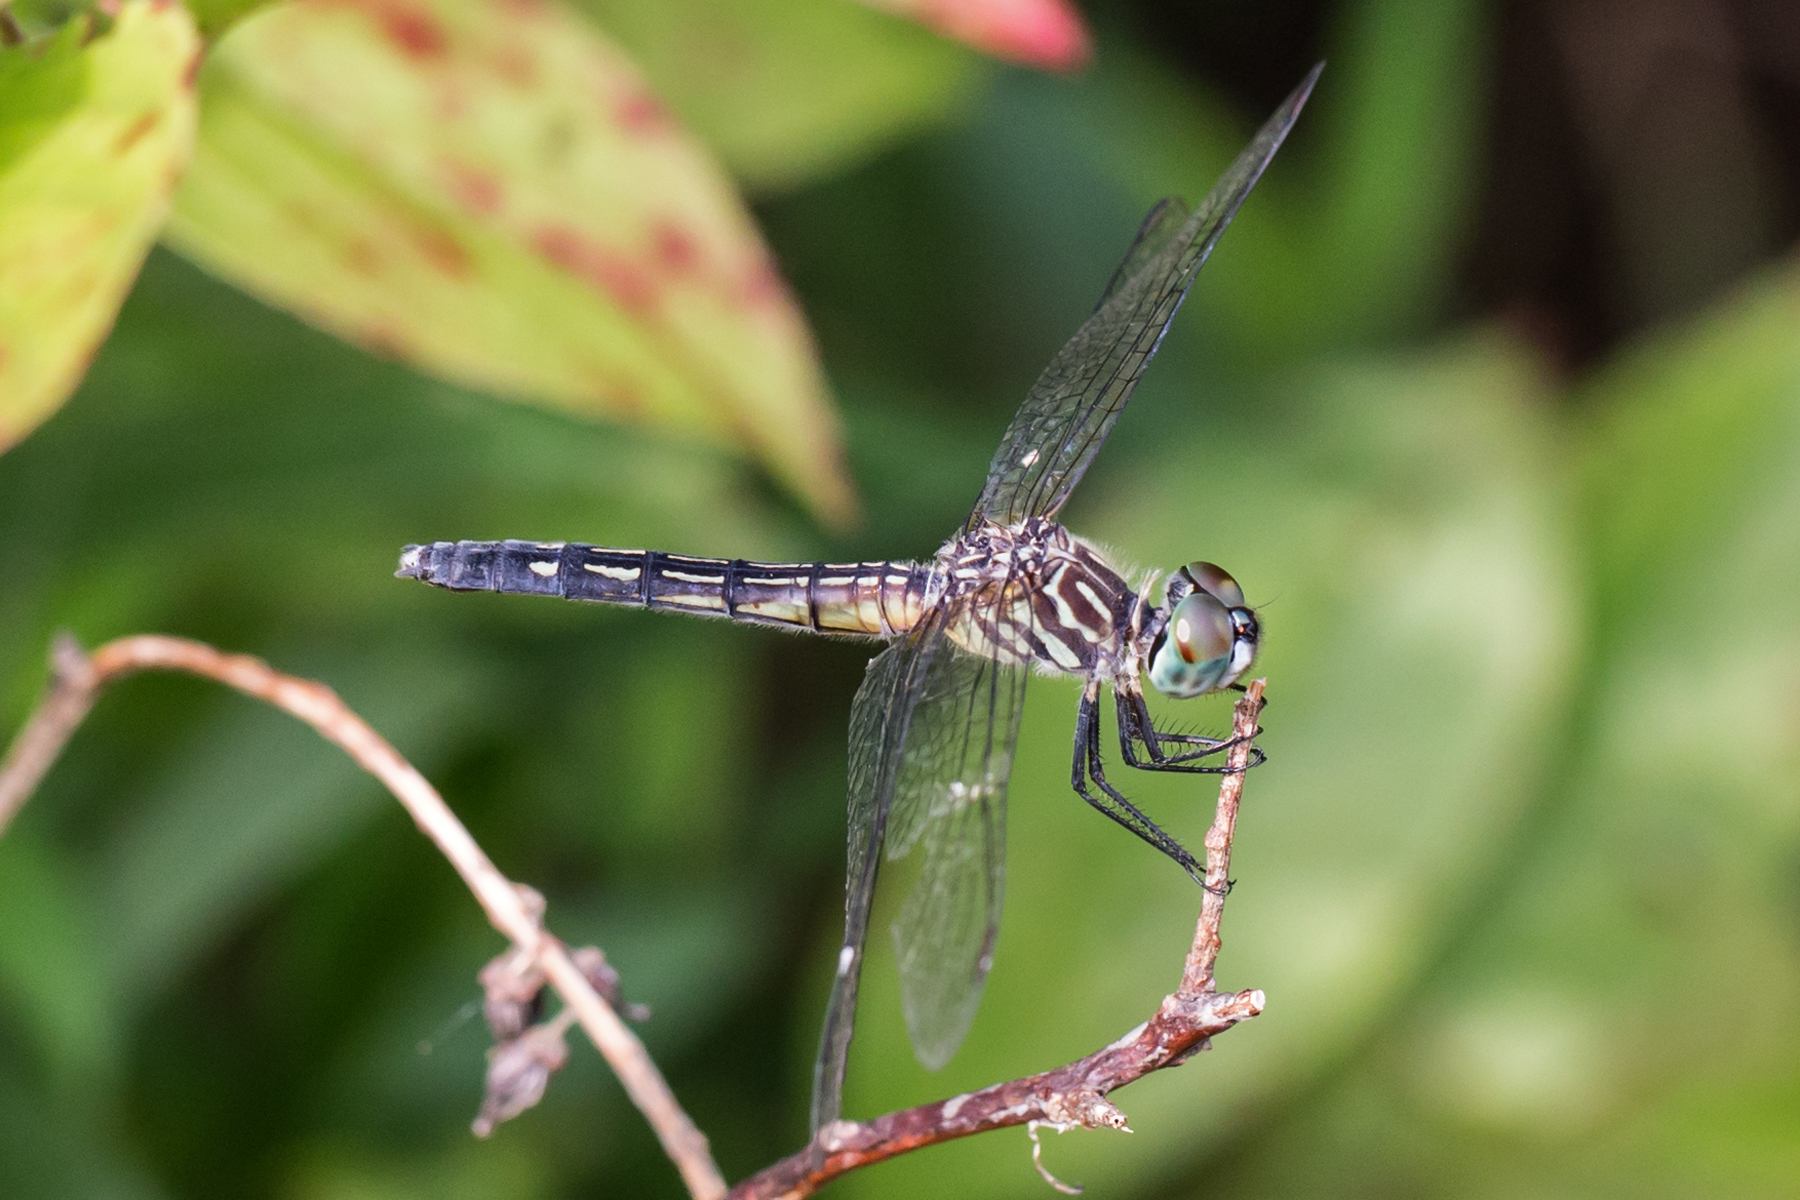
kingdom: Animalia
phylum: Arthropoda
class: Insecta
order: Odonata
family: Libellulidae
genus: Pachydiplax
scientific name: Pachydiplax longipennis
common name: Blue dasher
